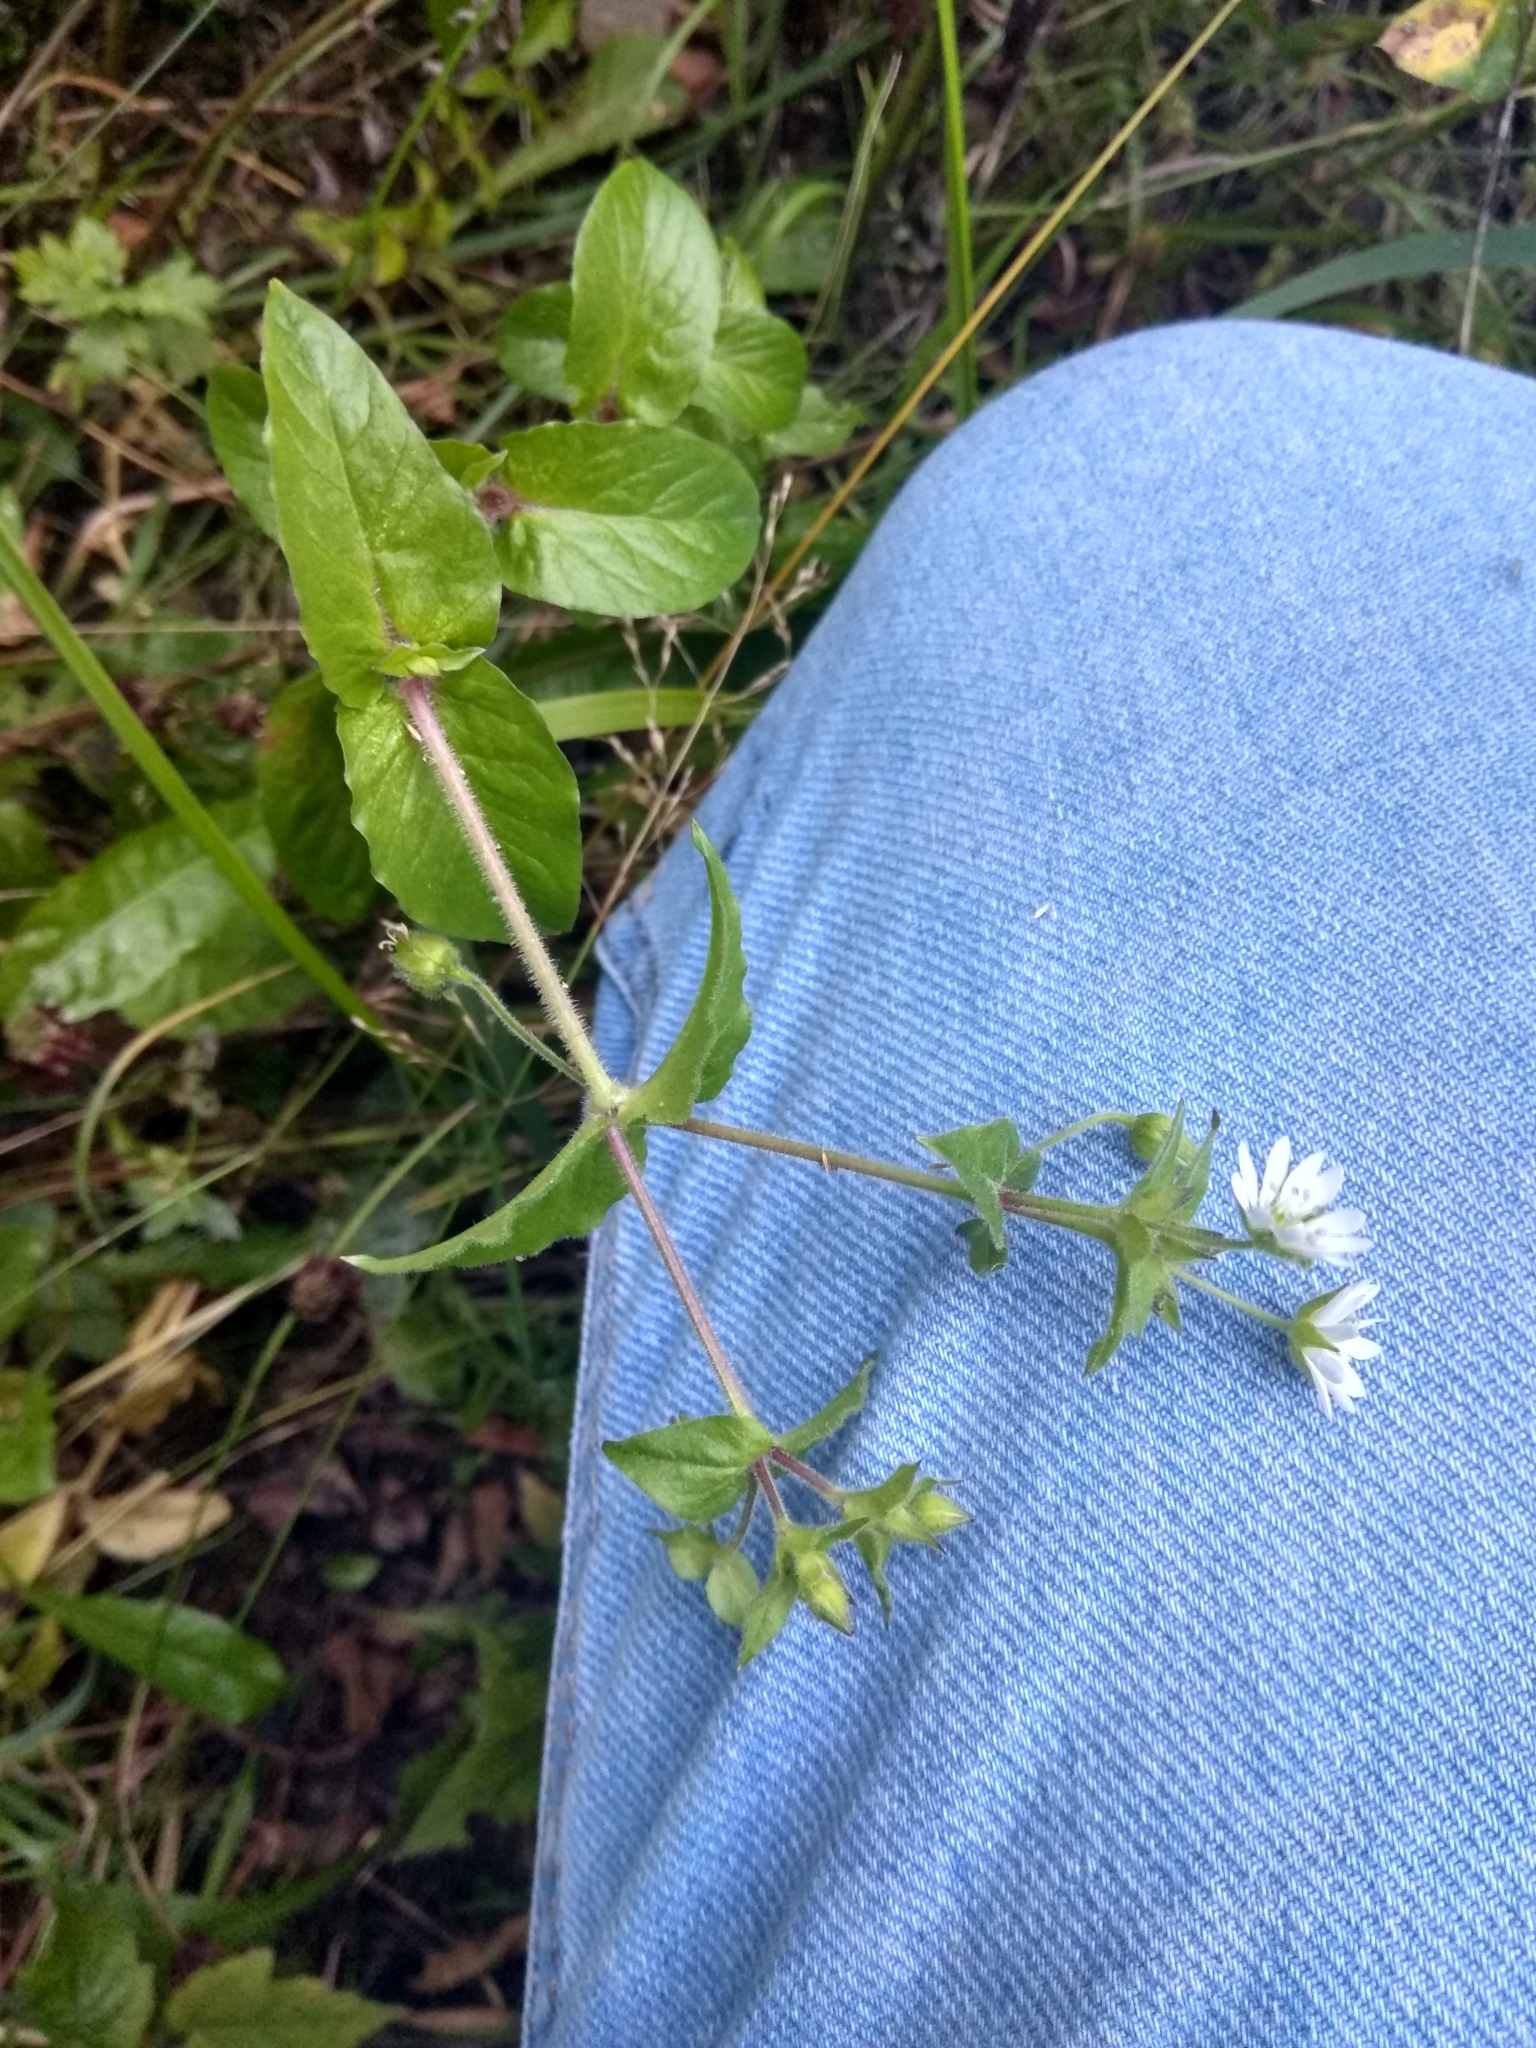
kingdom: Plantae
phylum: Tracheophyta
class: Magnoliopsida
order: Caryophyllales
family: Caryophyllaceae
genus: Stellaria
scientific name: Stellaria aquatica
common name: Water chickweed
